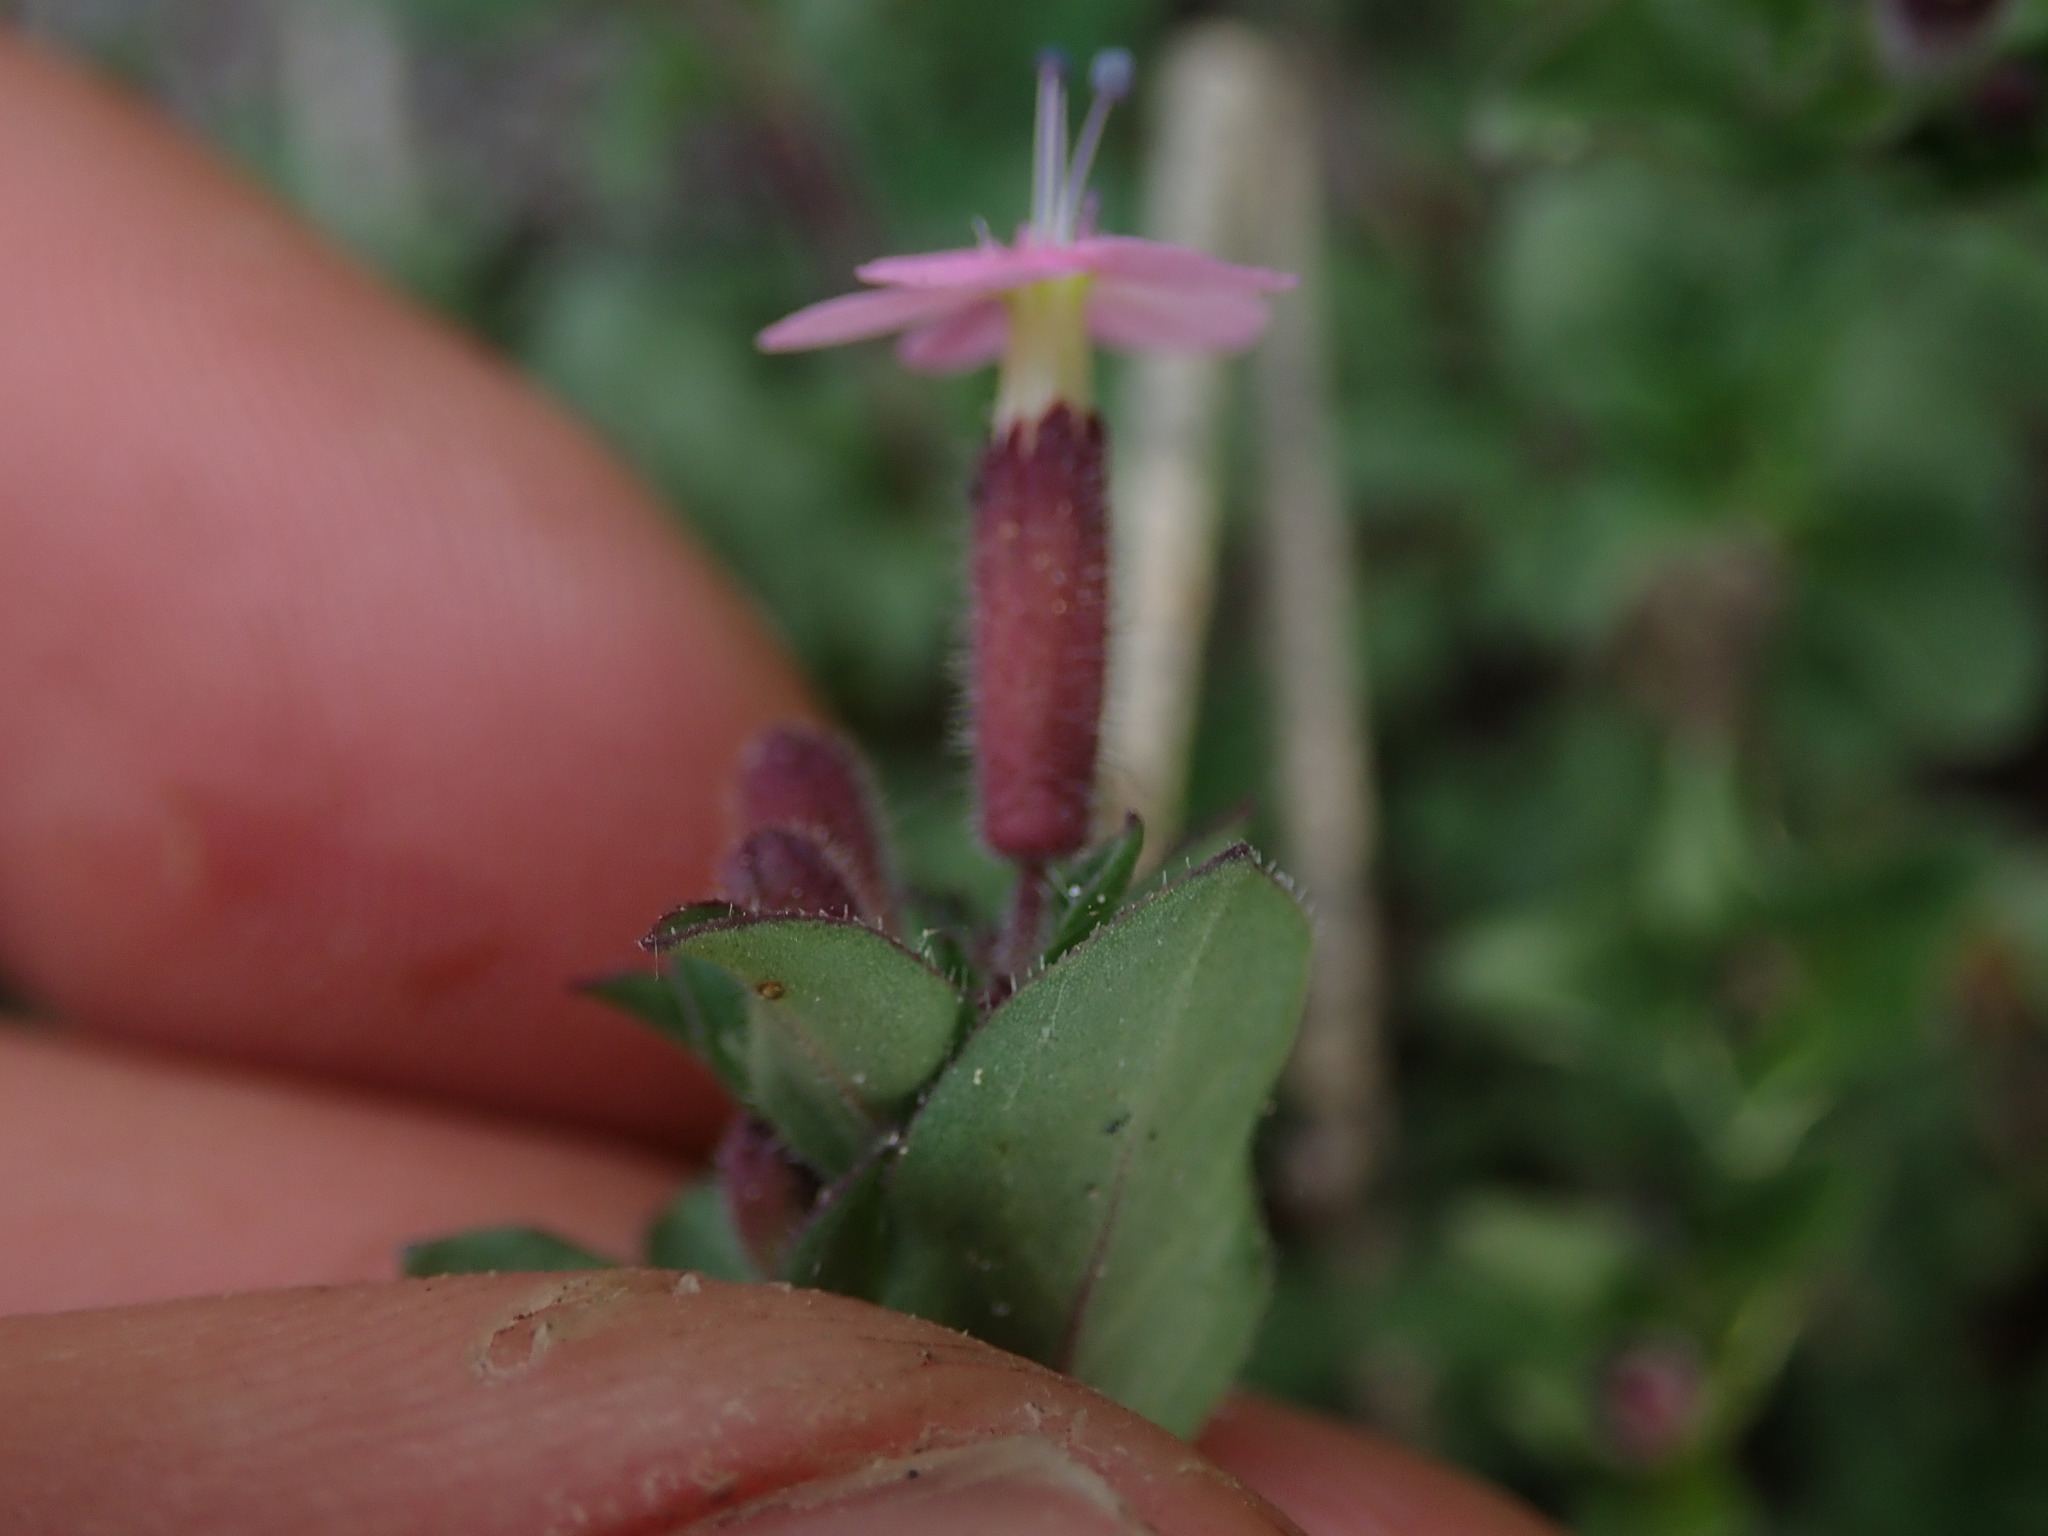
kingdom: Plantae
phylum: Tracheophyta
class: Magnoliopsida
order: Caryophyllales
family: Caryophyllaceae
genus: Saponaria
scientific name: Saponaria ocymoides
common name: Rock soapwort
